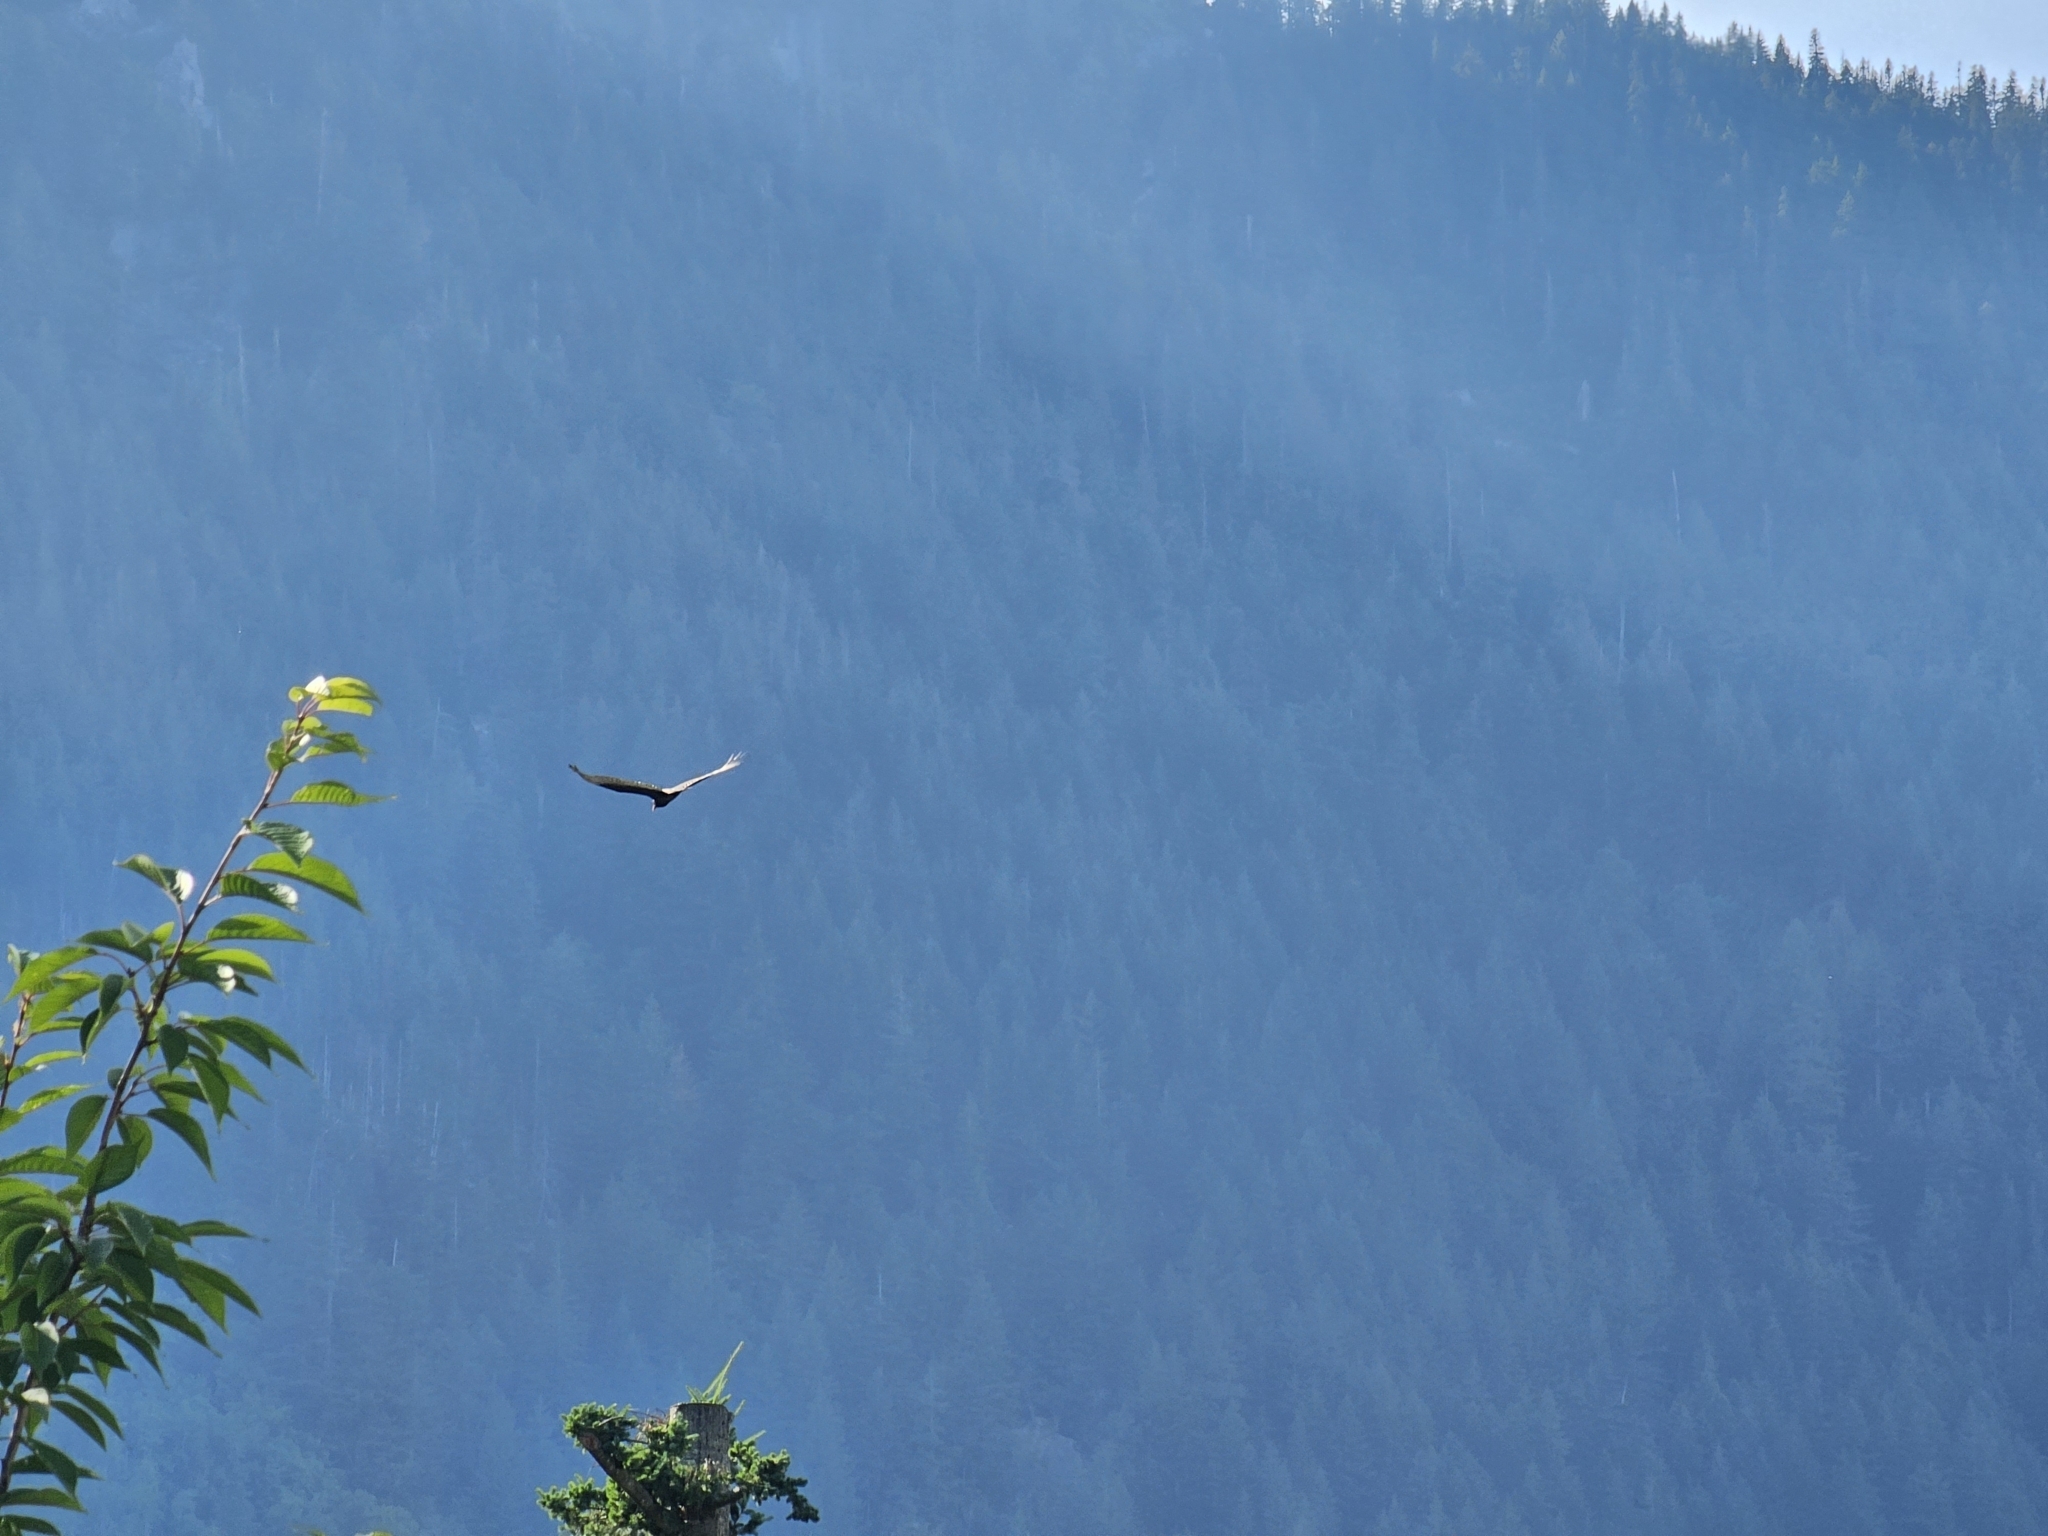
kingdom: Animalia
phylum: Chordata
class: Aves
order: Accipitriformes
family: Cathartidae
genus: Cathartes
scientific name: Cathartes aura
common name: Turkey vulture
